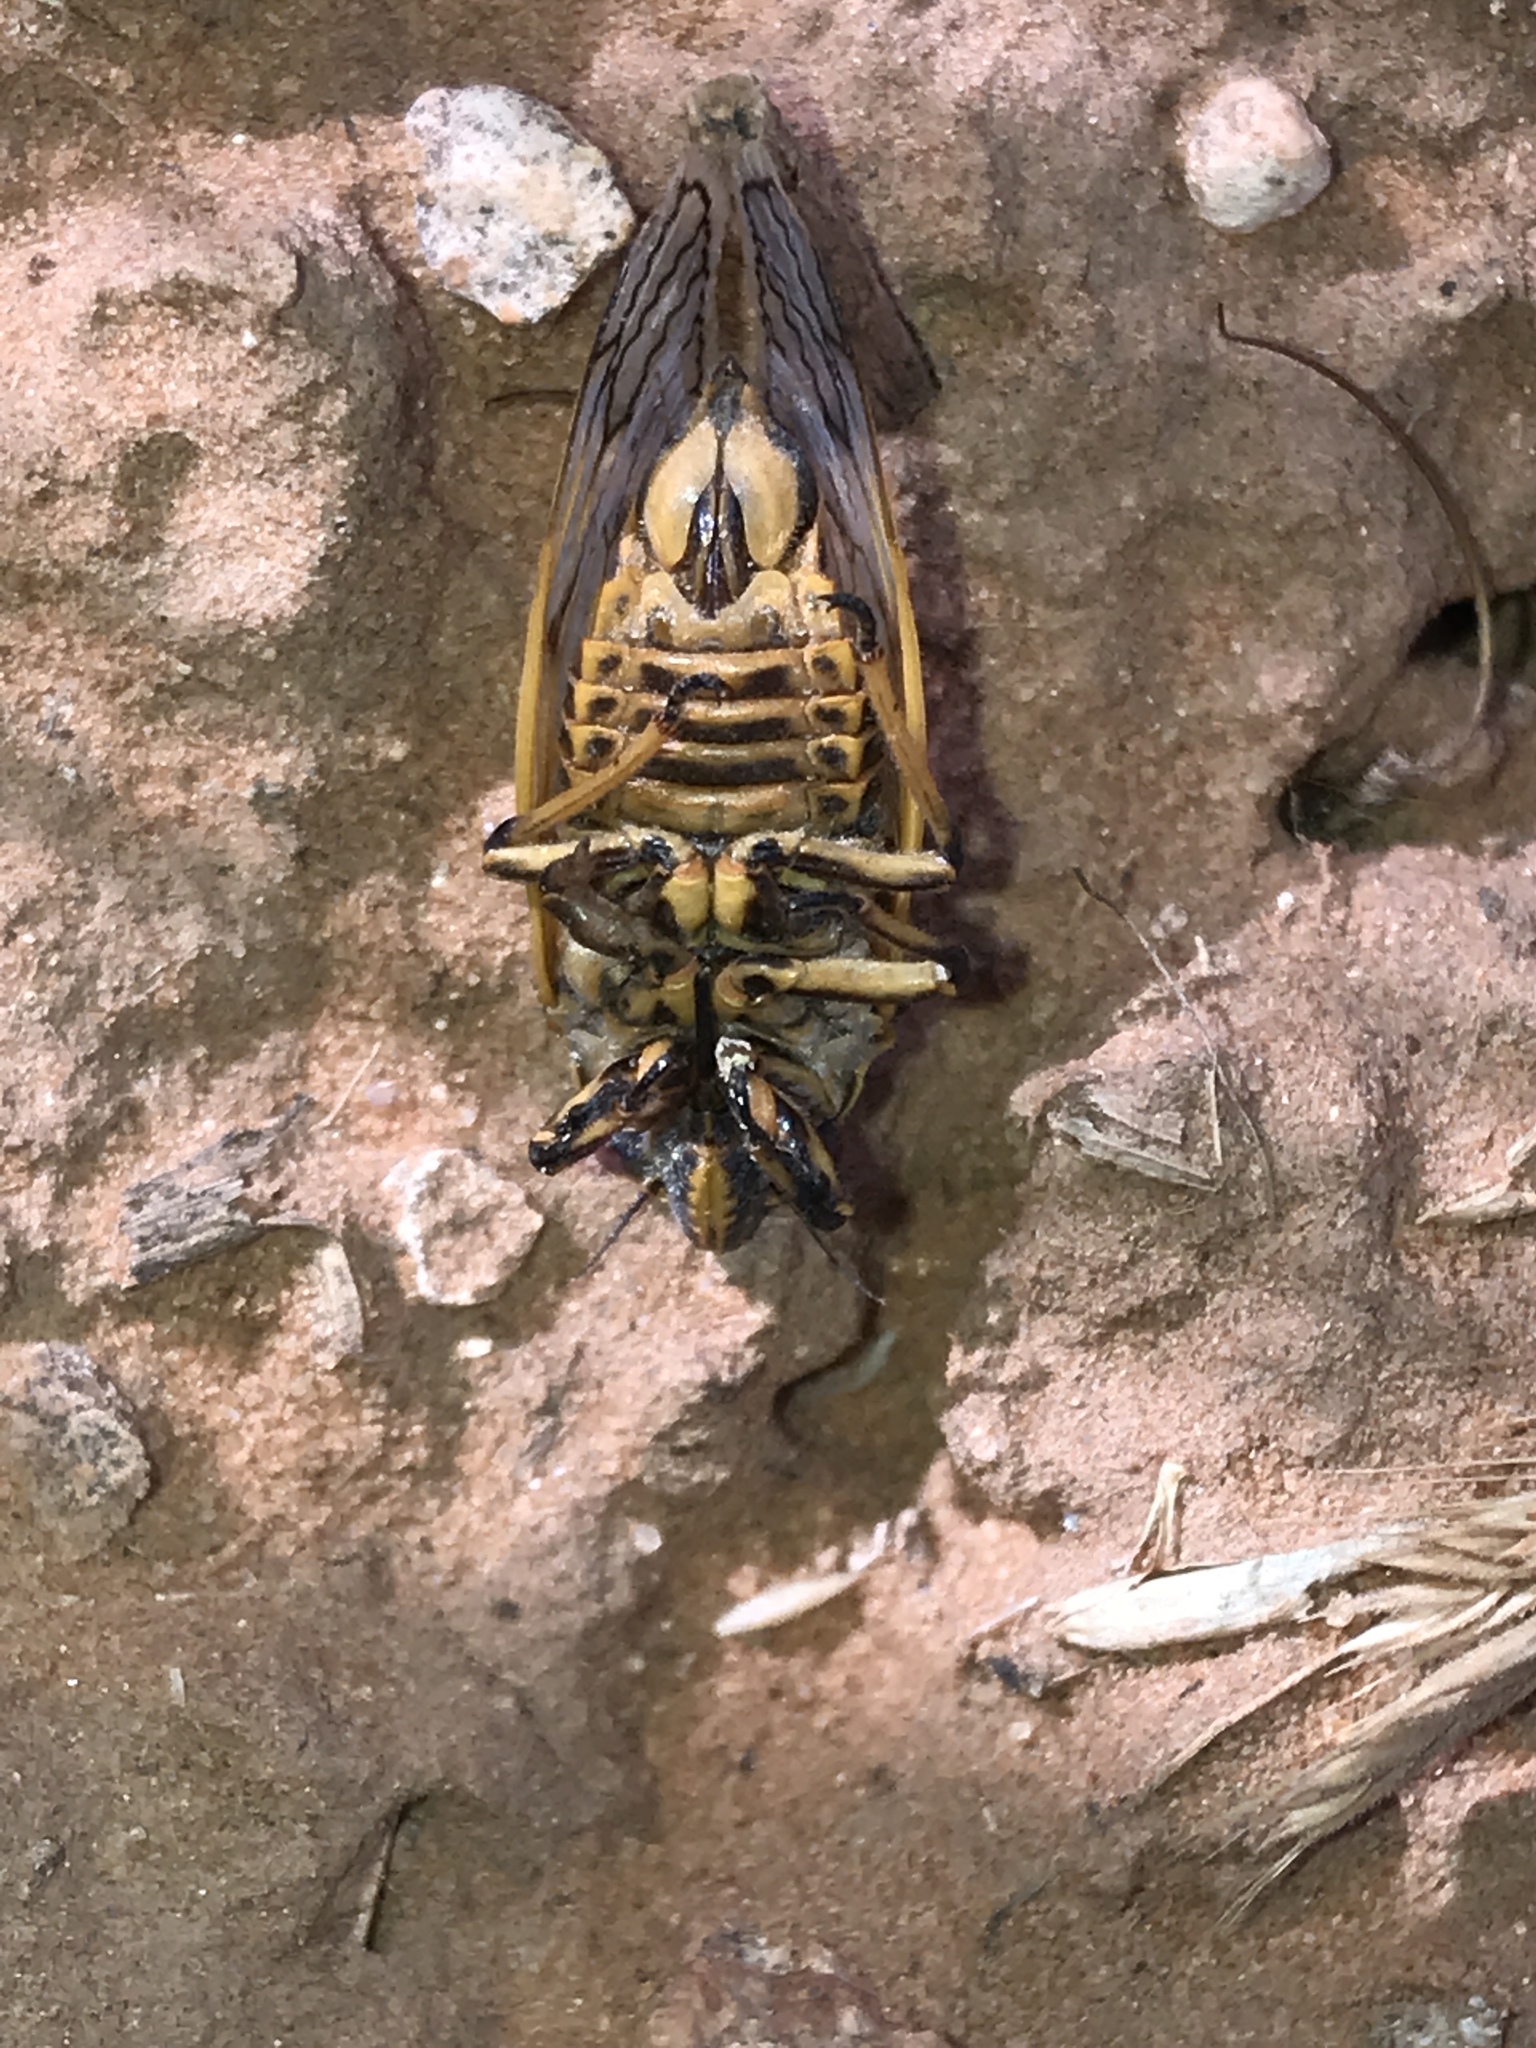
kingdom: Animalia
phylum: Arthropoda
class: Insecta
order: Hemiptera
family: Cicadidae
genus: Okanagana
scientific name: Okanagana synodica
